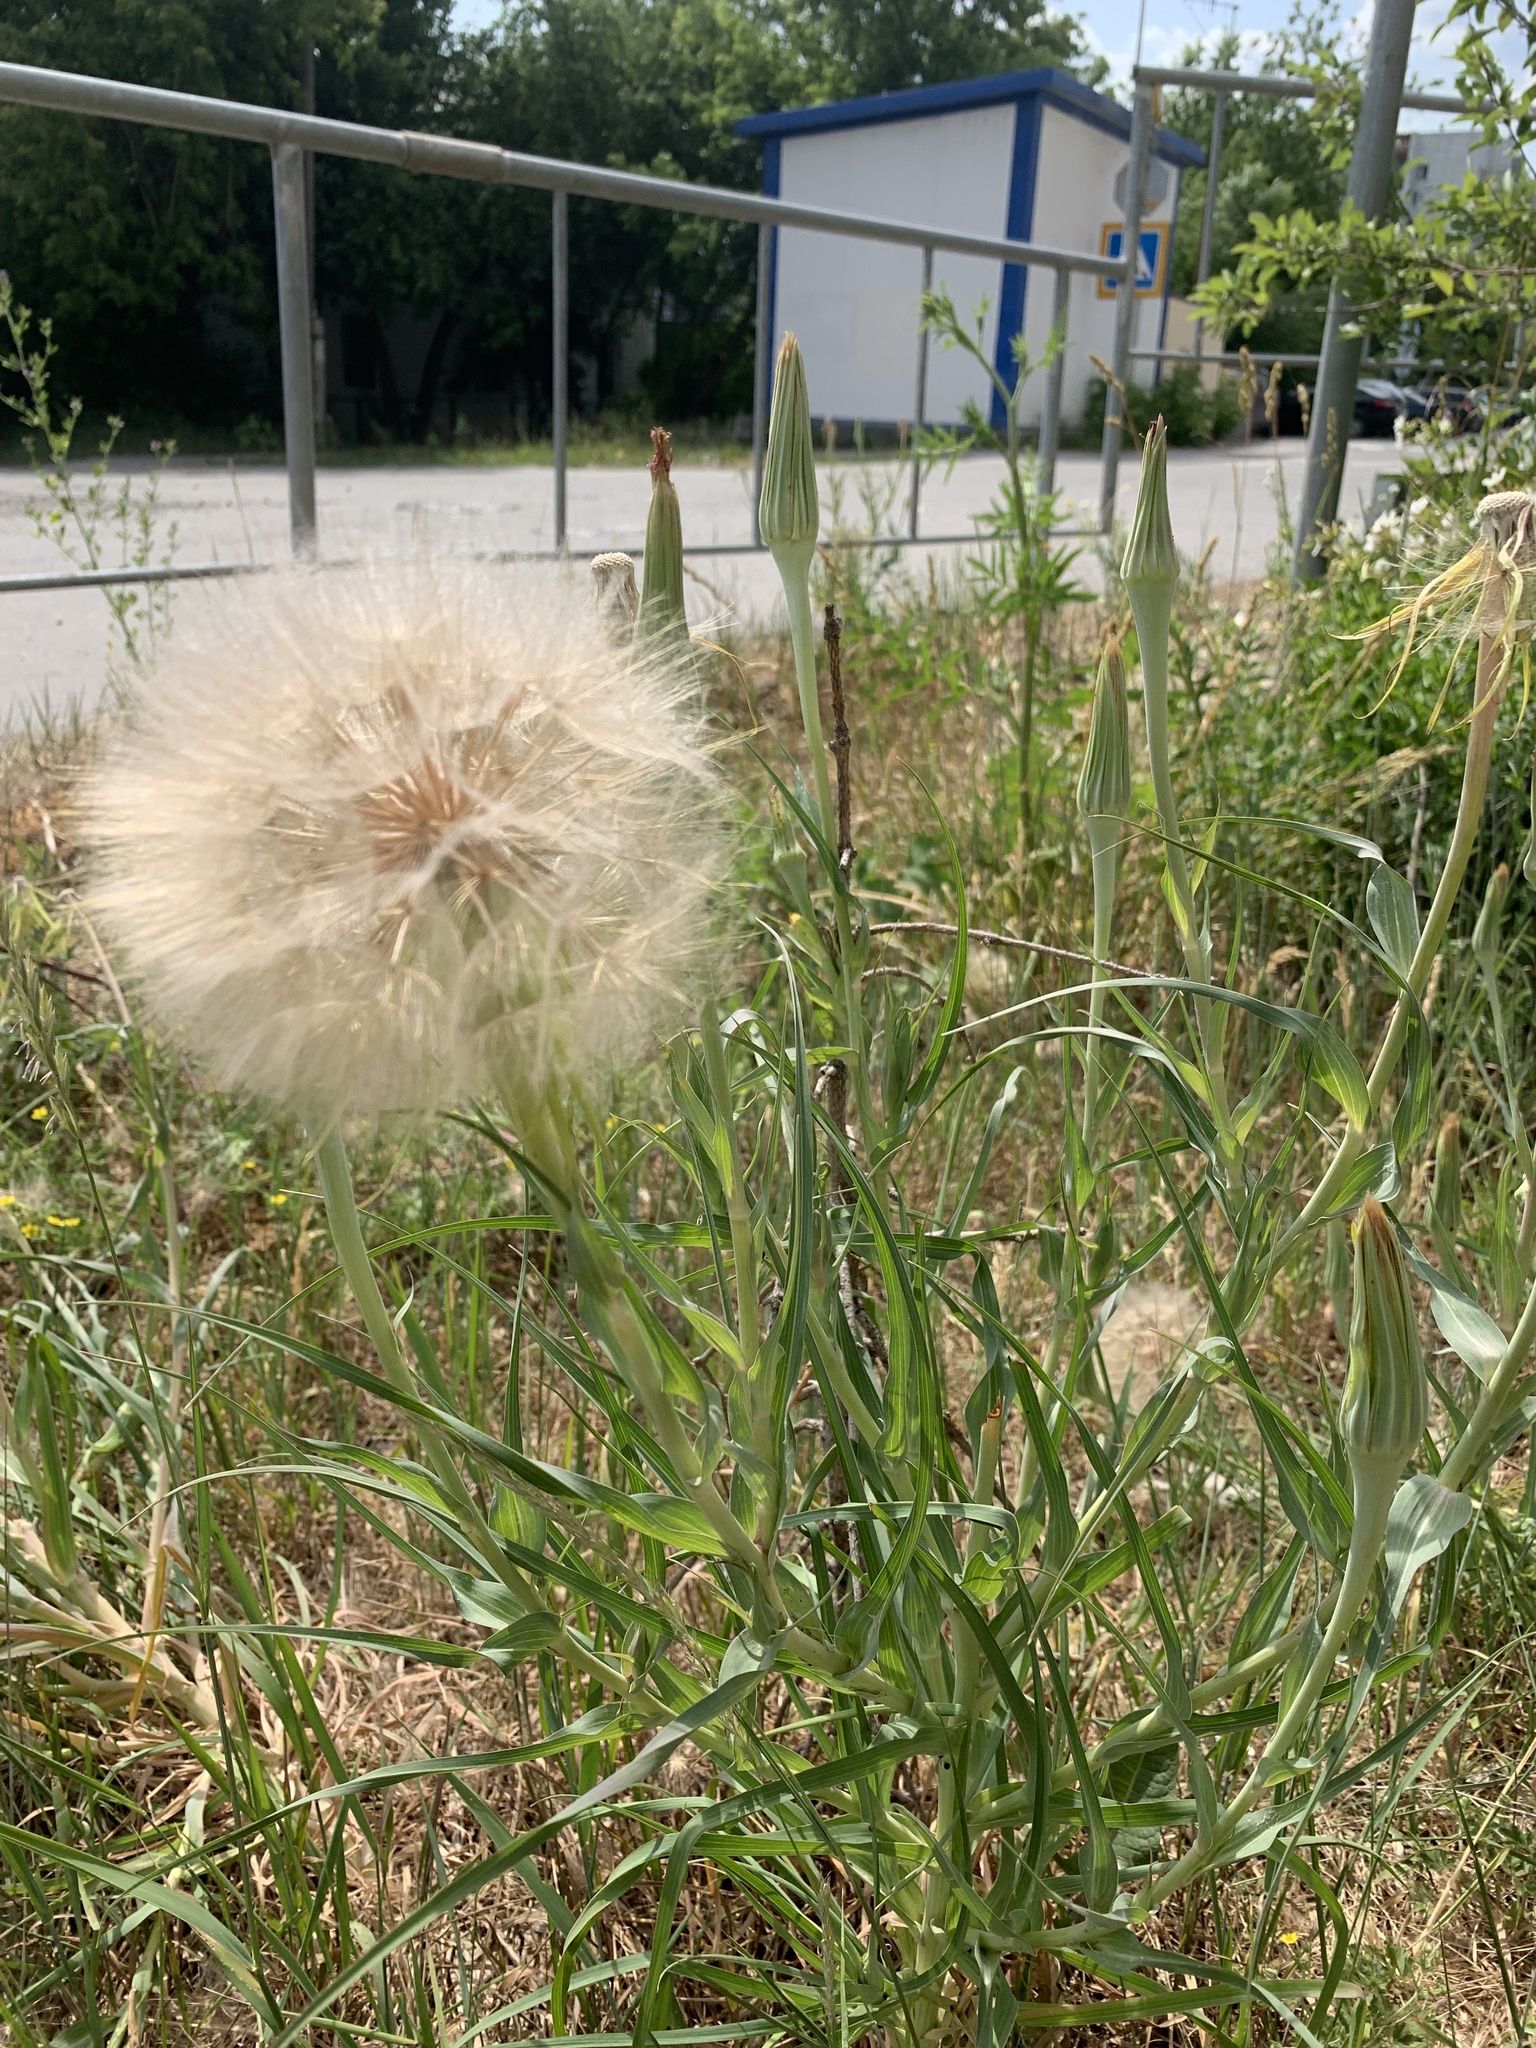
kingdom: Plantae
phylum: Tracheophyta
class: Magnoliopsida
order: Asterales
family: Asteraceae
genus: Tragopogon
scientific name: Tragopogon dubius
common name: Yellow salsify
